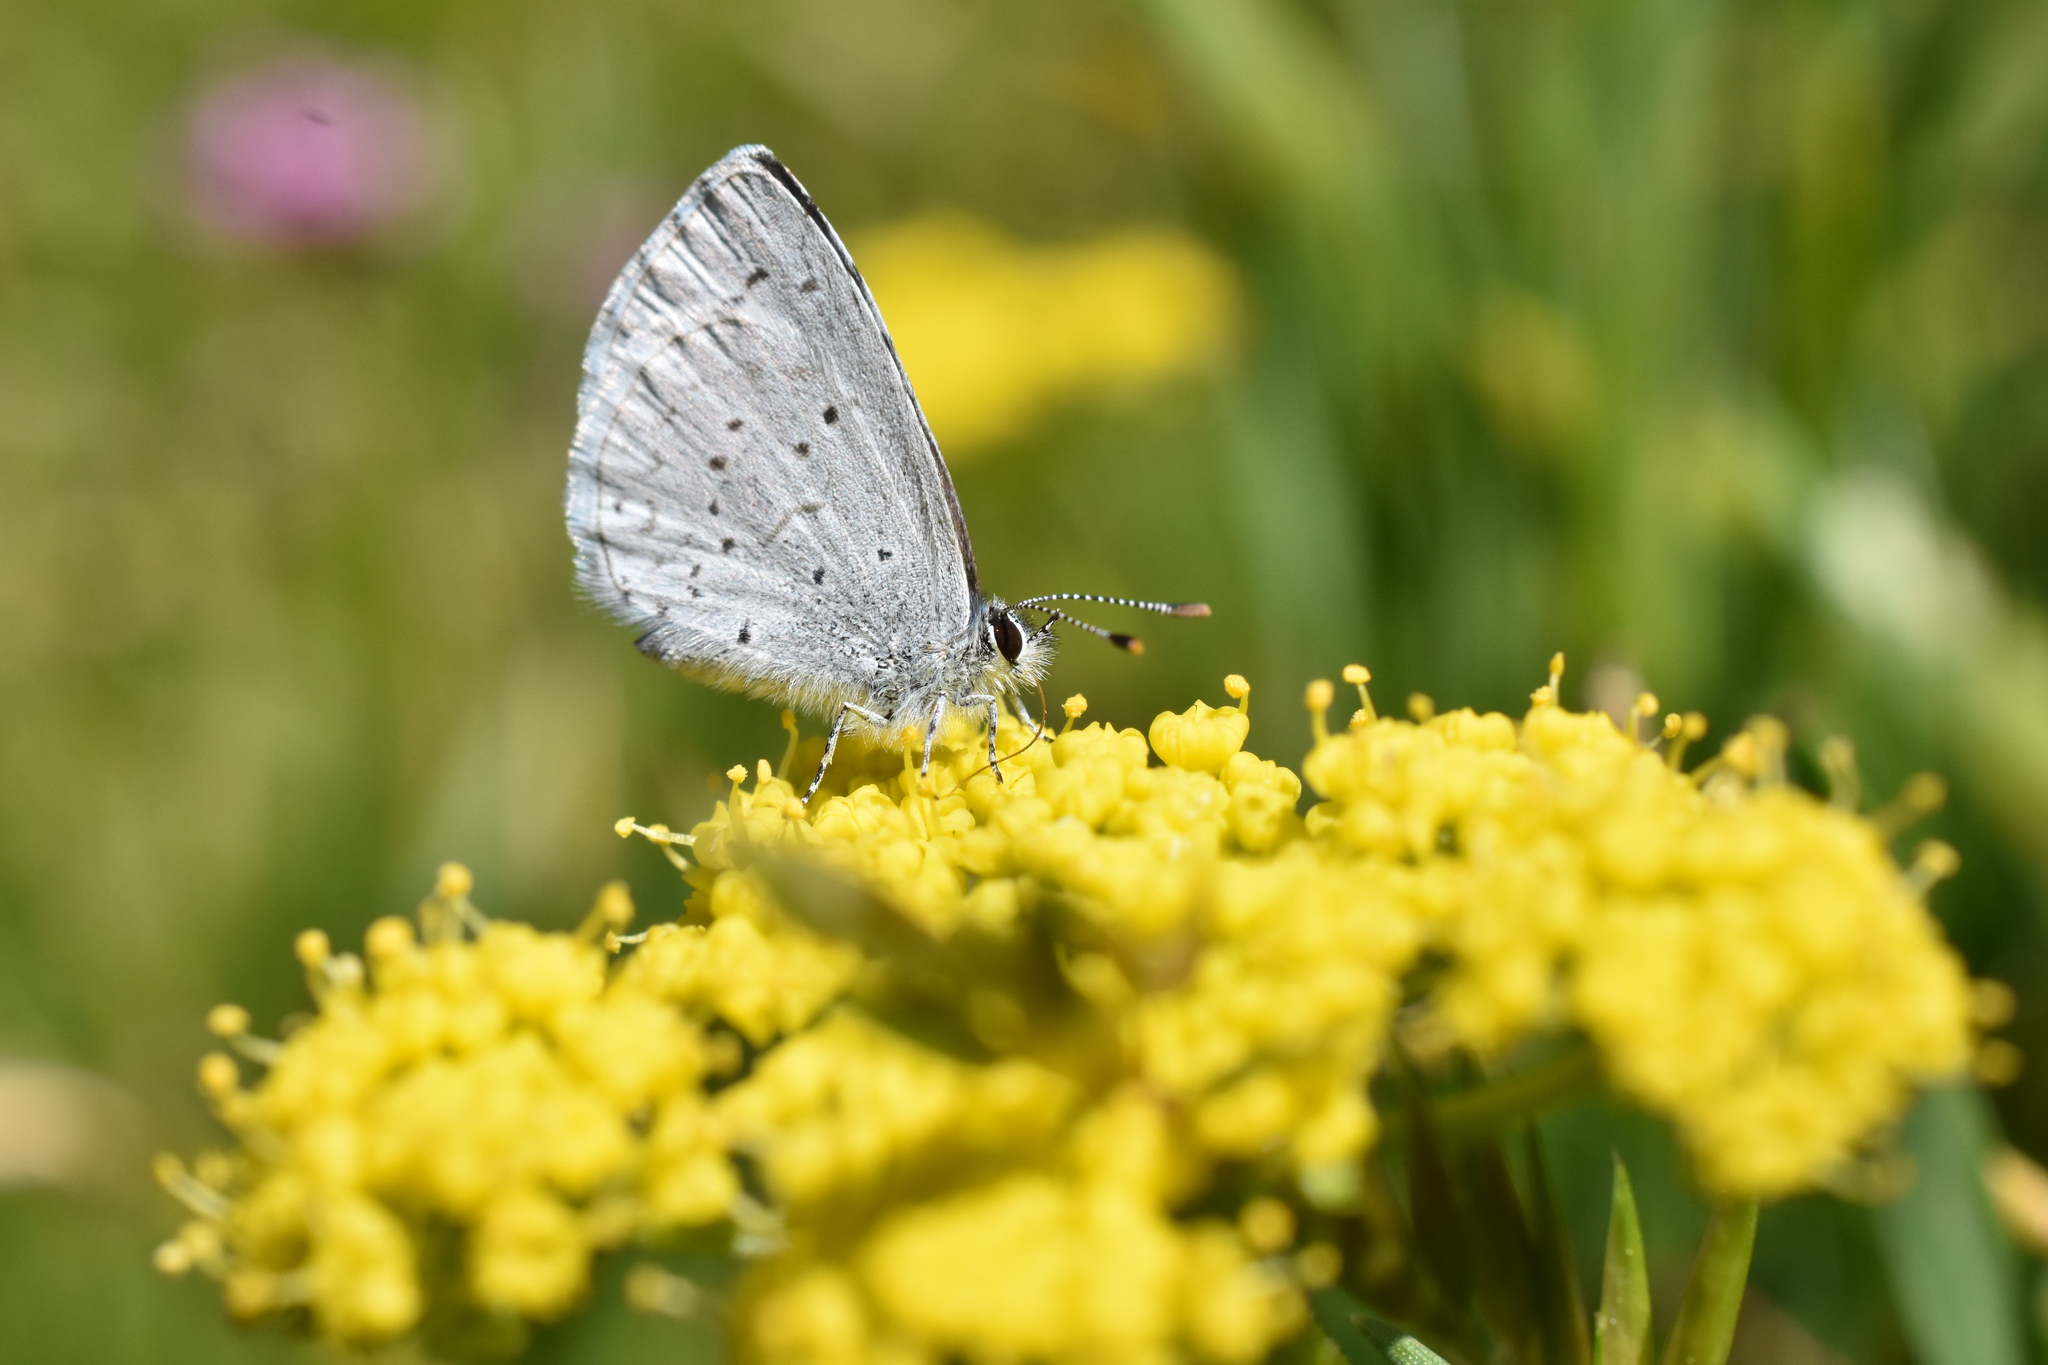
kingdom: Animalia
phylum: Arthropoda
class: Insecta
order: Lepidoptera
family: Lycaenidae
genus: Celastrina
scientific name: Celastrina ladon
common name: Spring azure
